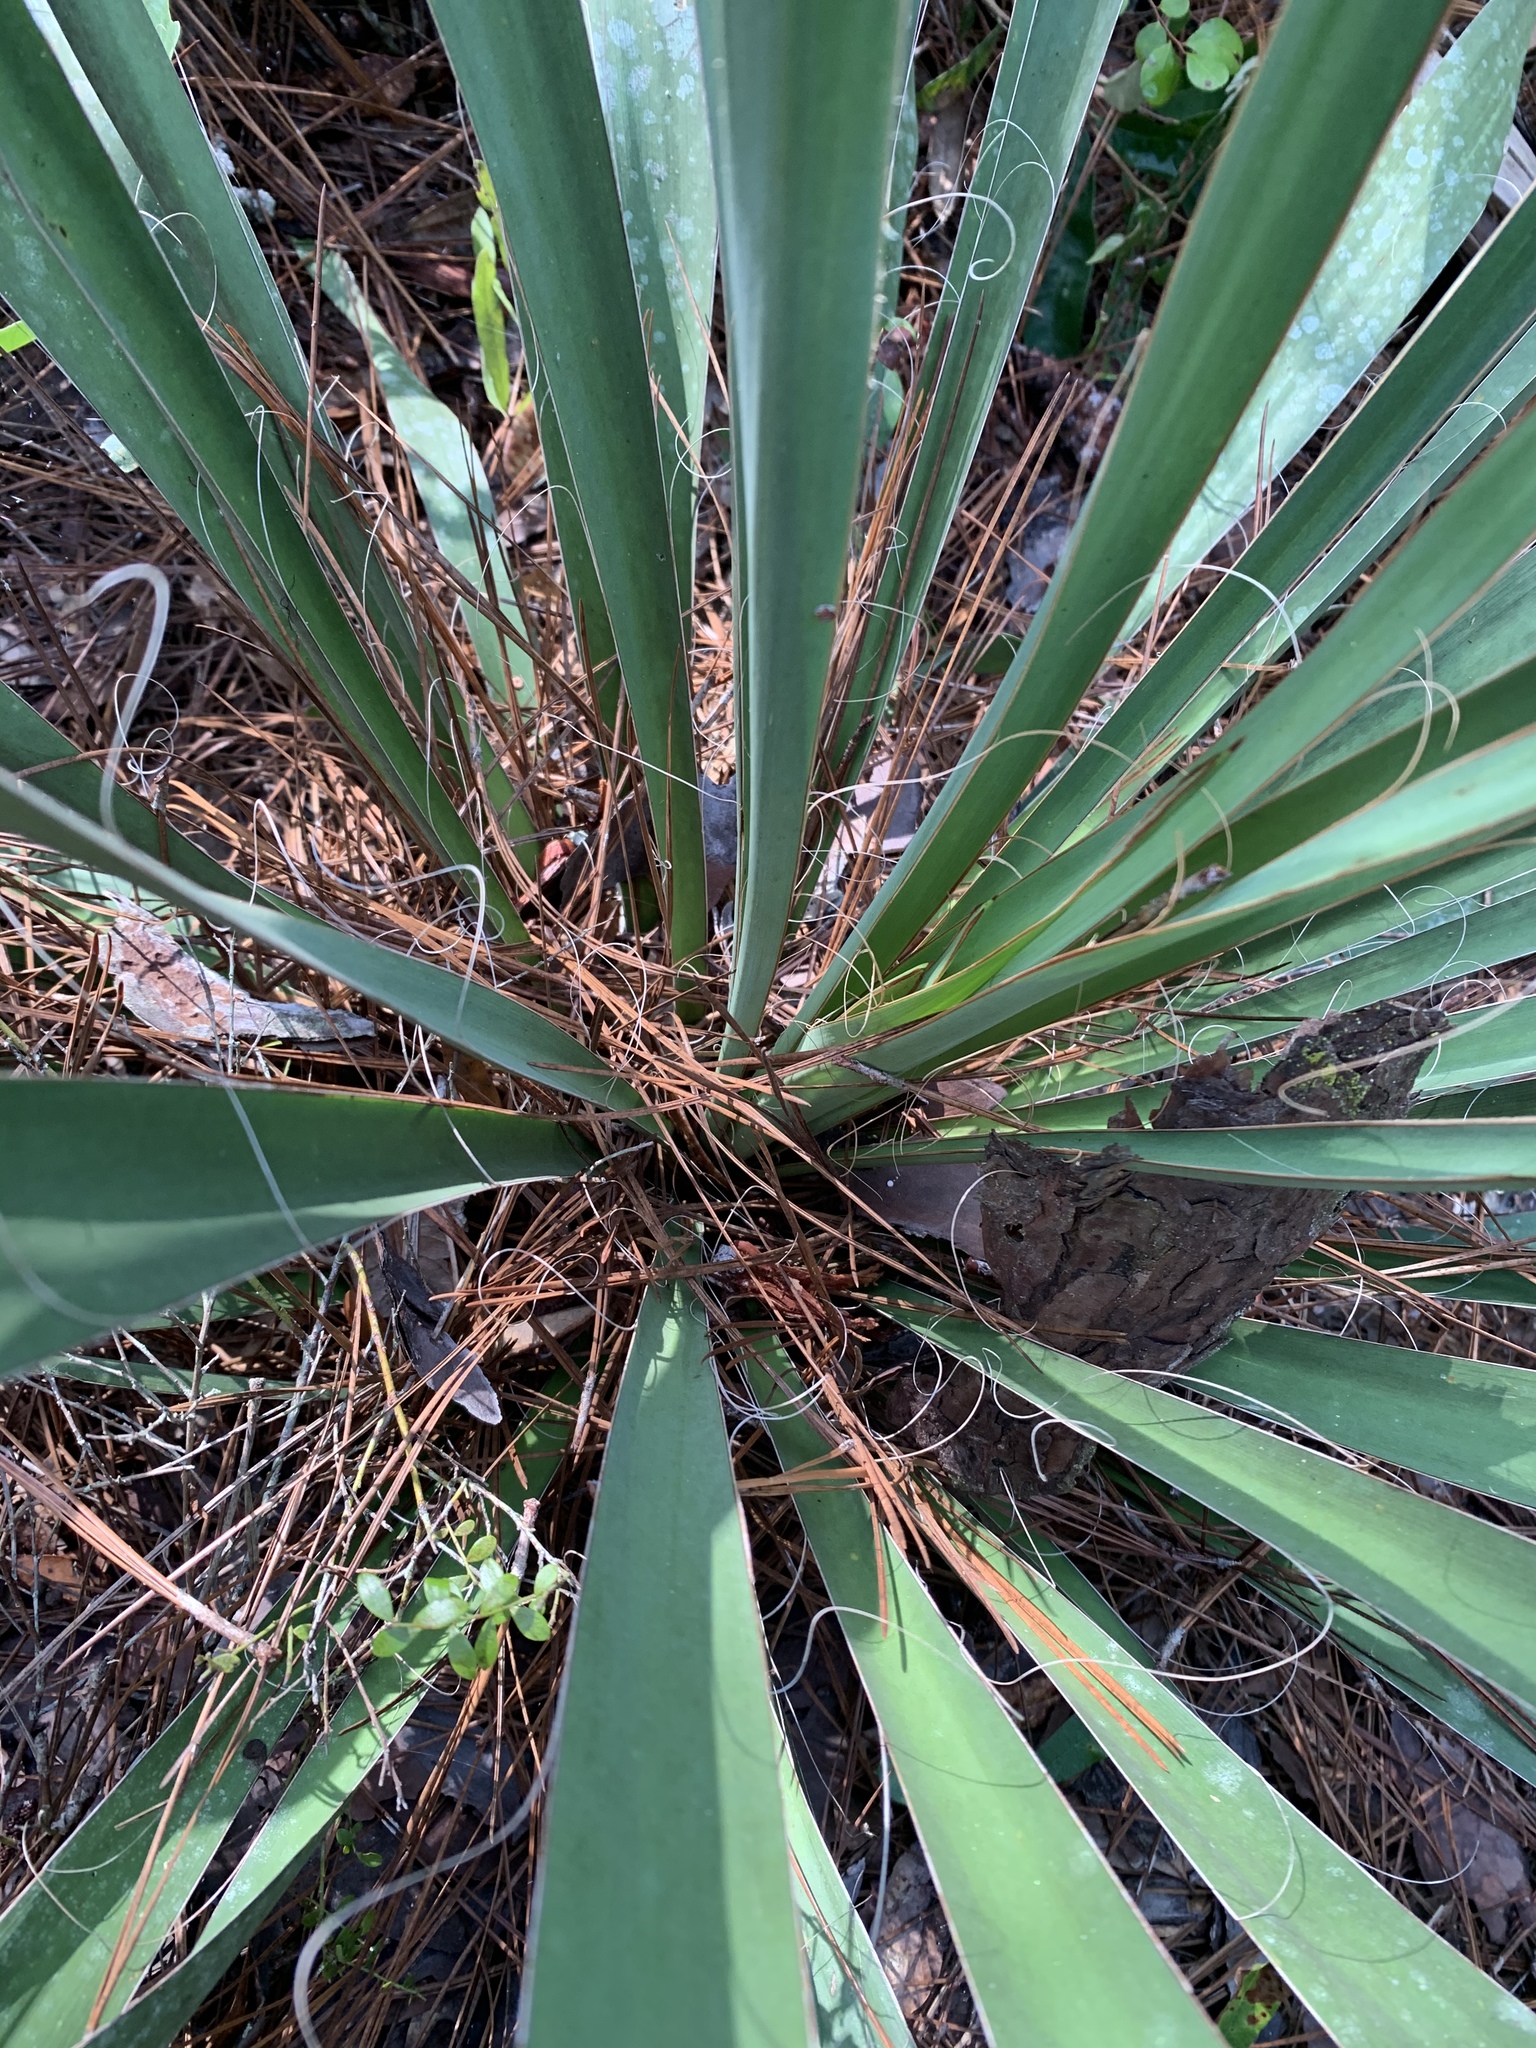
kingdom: Plantae
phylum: Tracheophyta
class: Liliopsida
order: Asparagales
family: Asparagaceae
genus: Yucca
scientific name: Yucca filamentosa
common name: Adam's-needle
